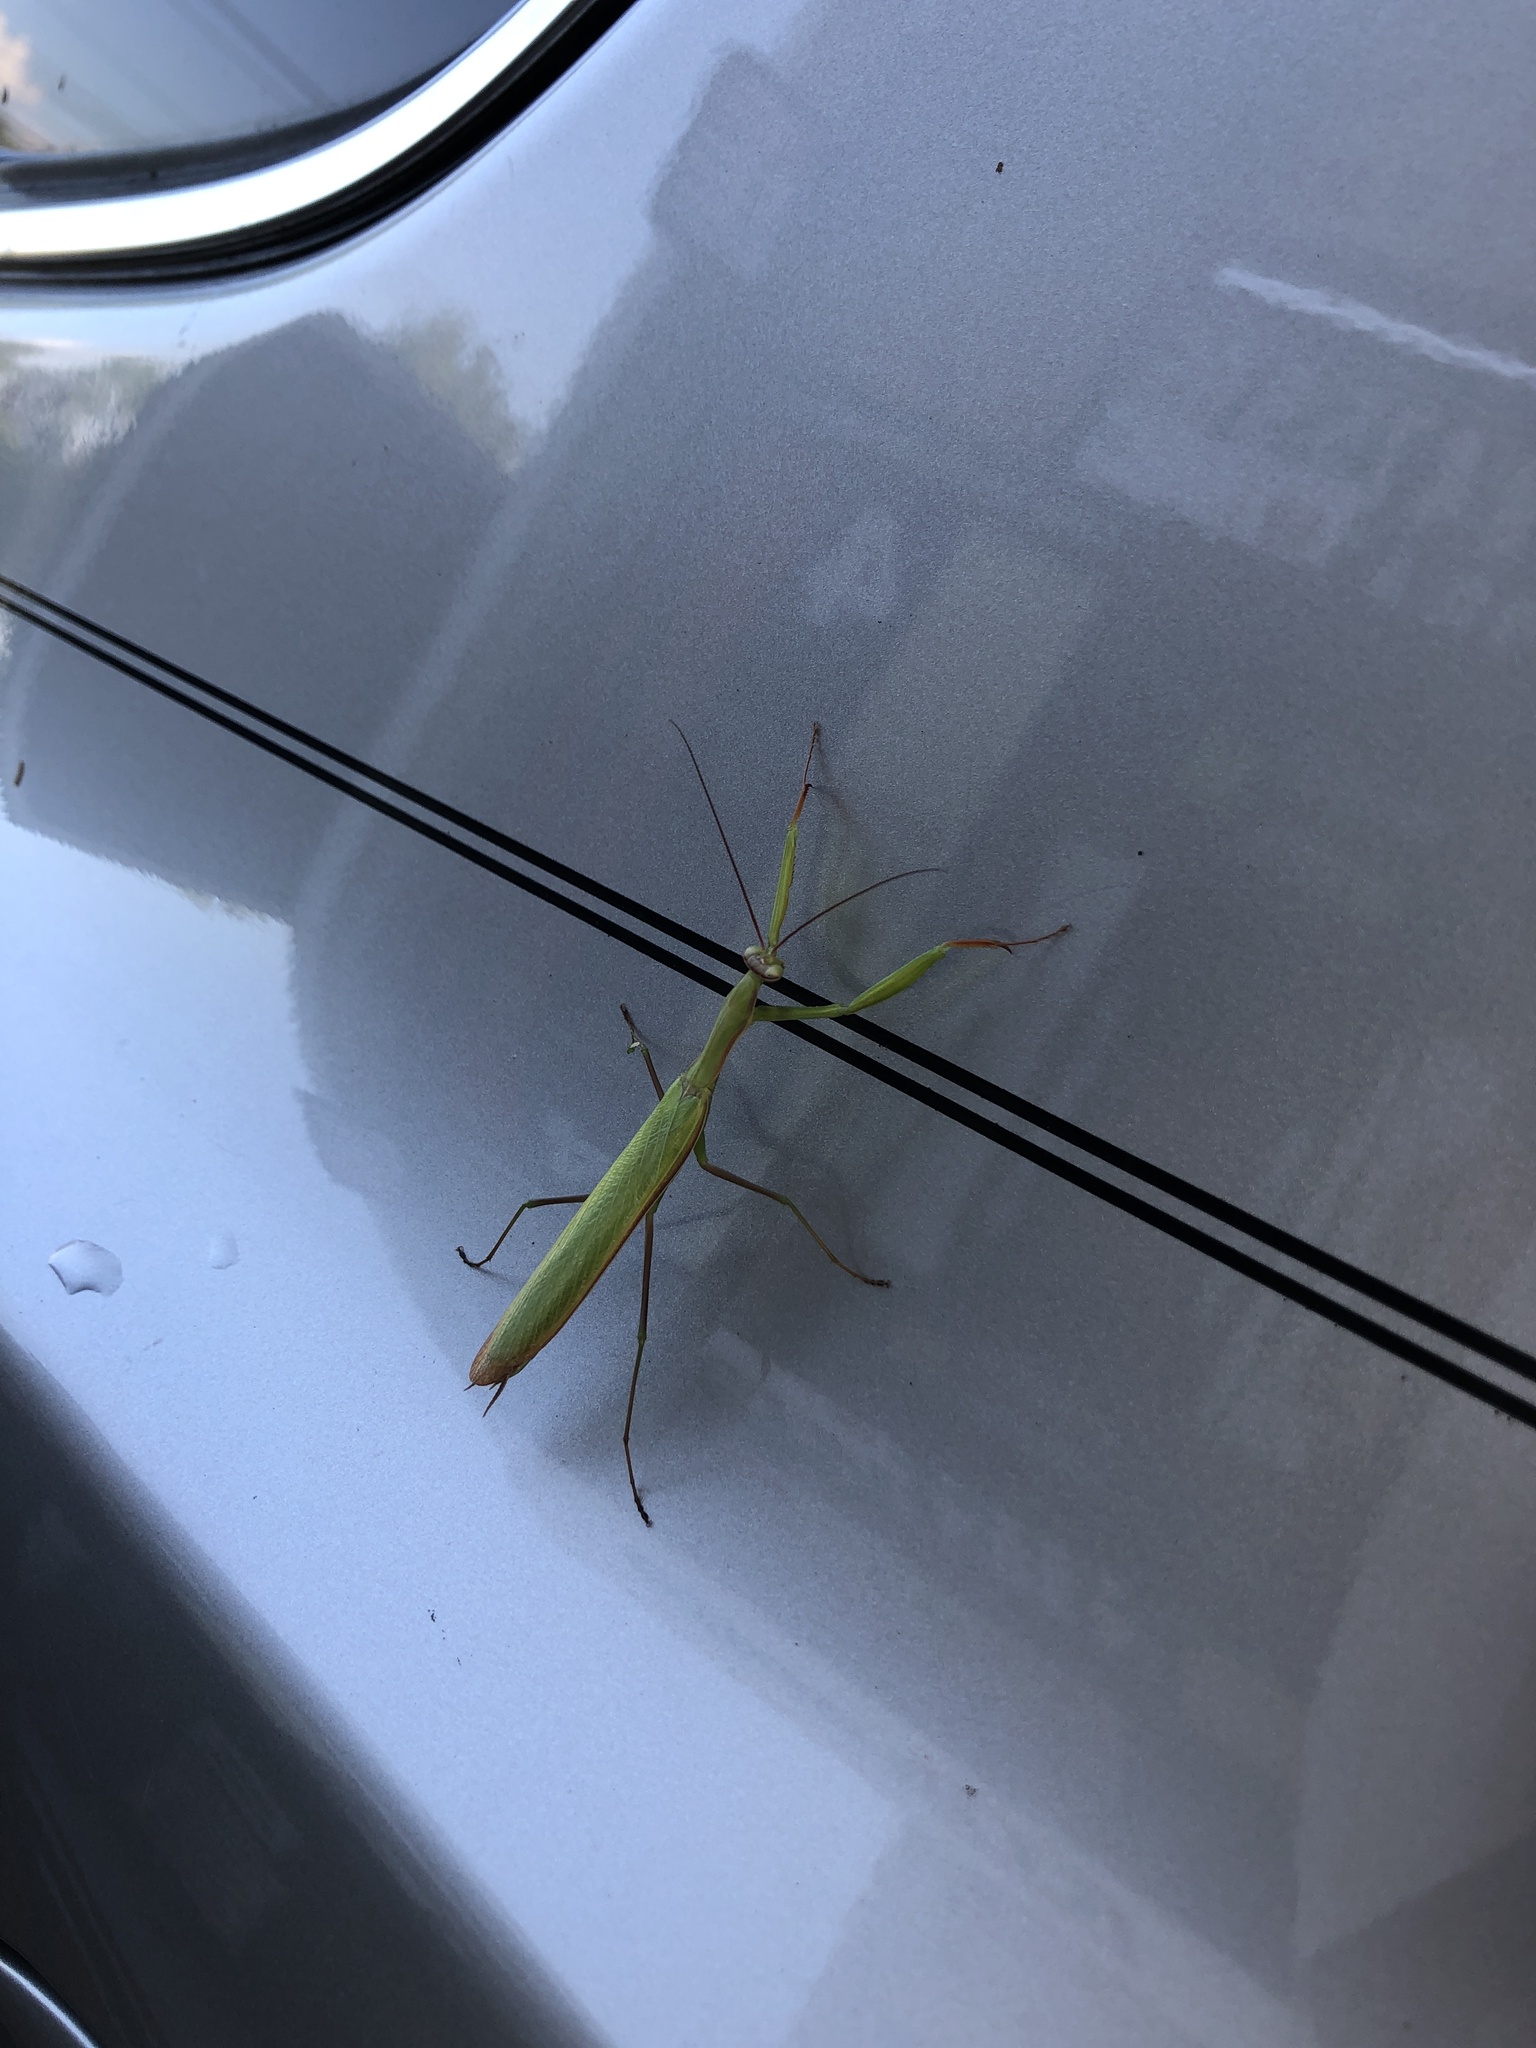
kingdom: Animalia
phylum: Arthropoda
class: Insecta
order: Mantodea
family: Mantidae
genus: Mantis
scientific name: Mantis religiosa
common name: Praying mantis
